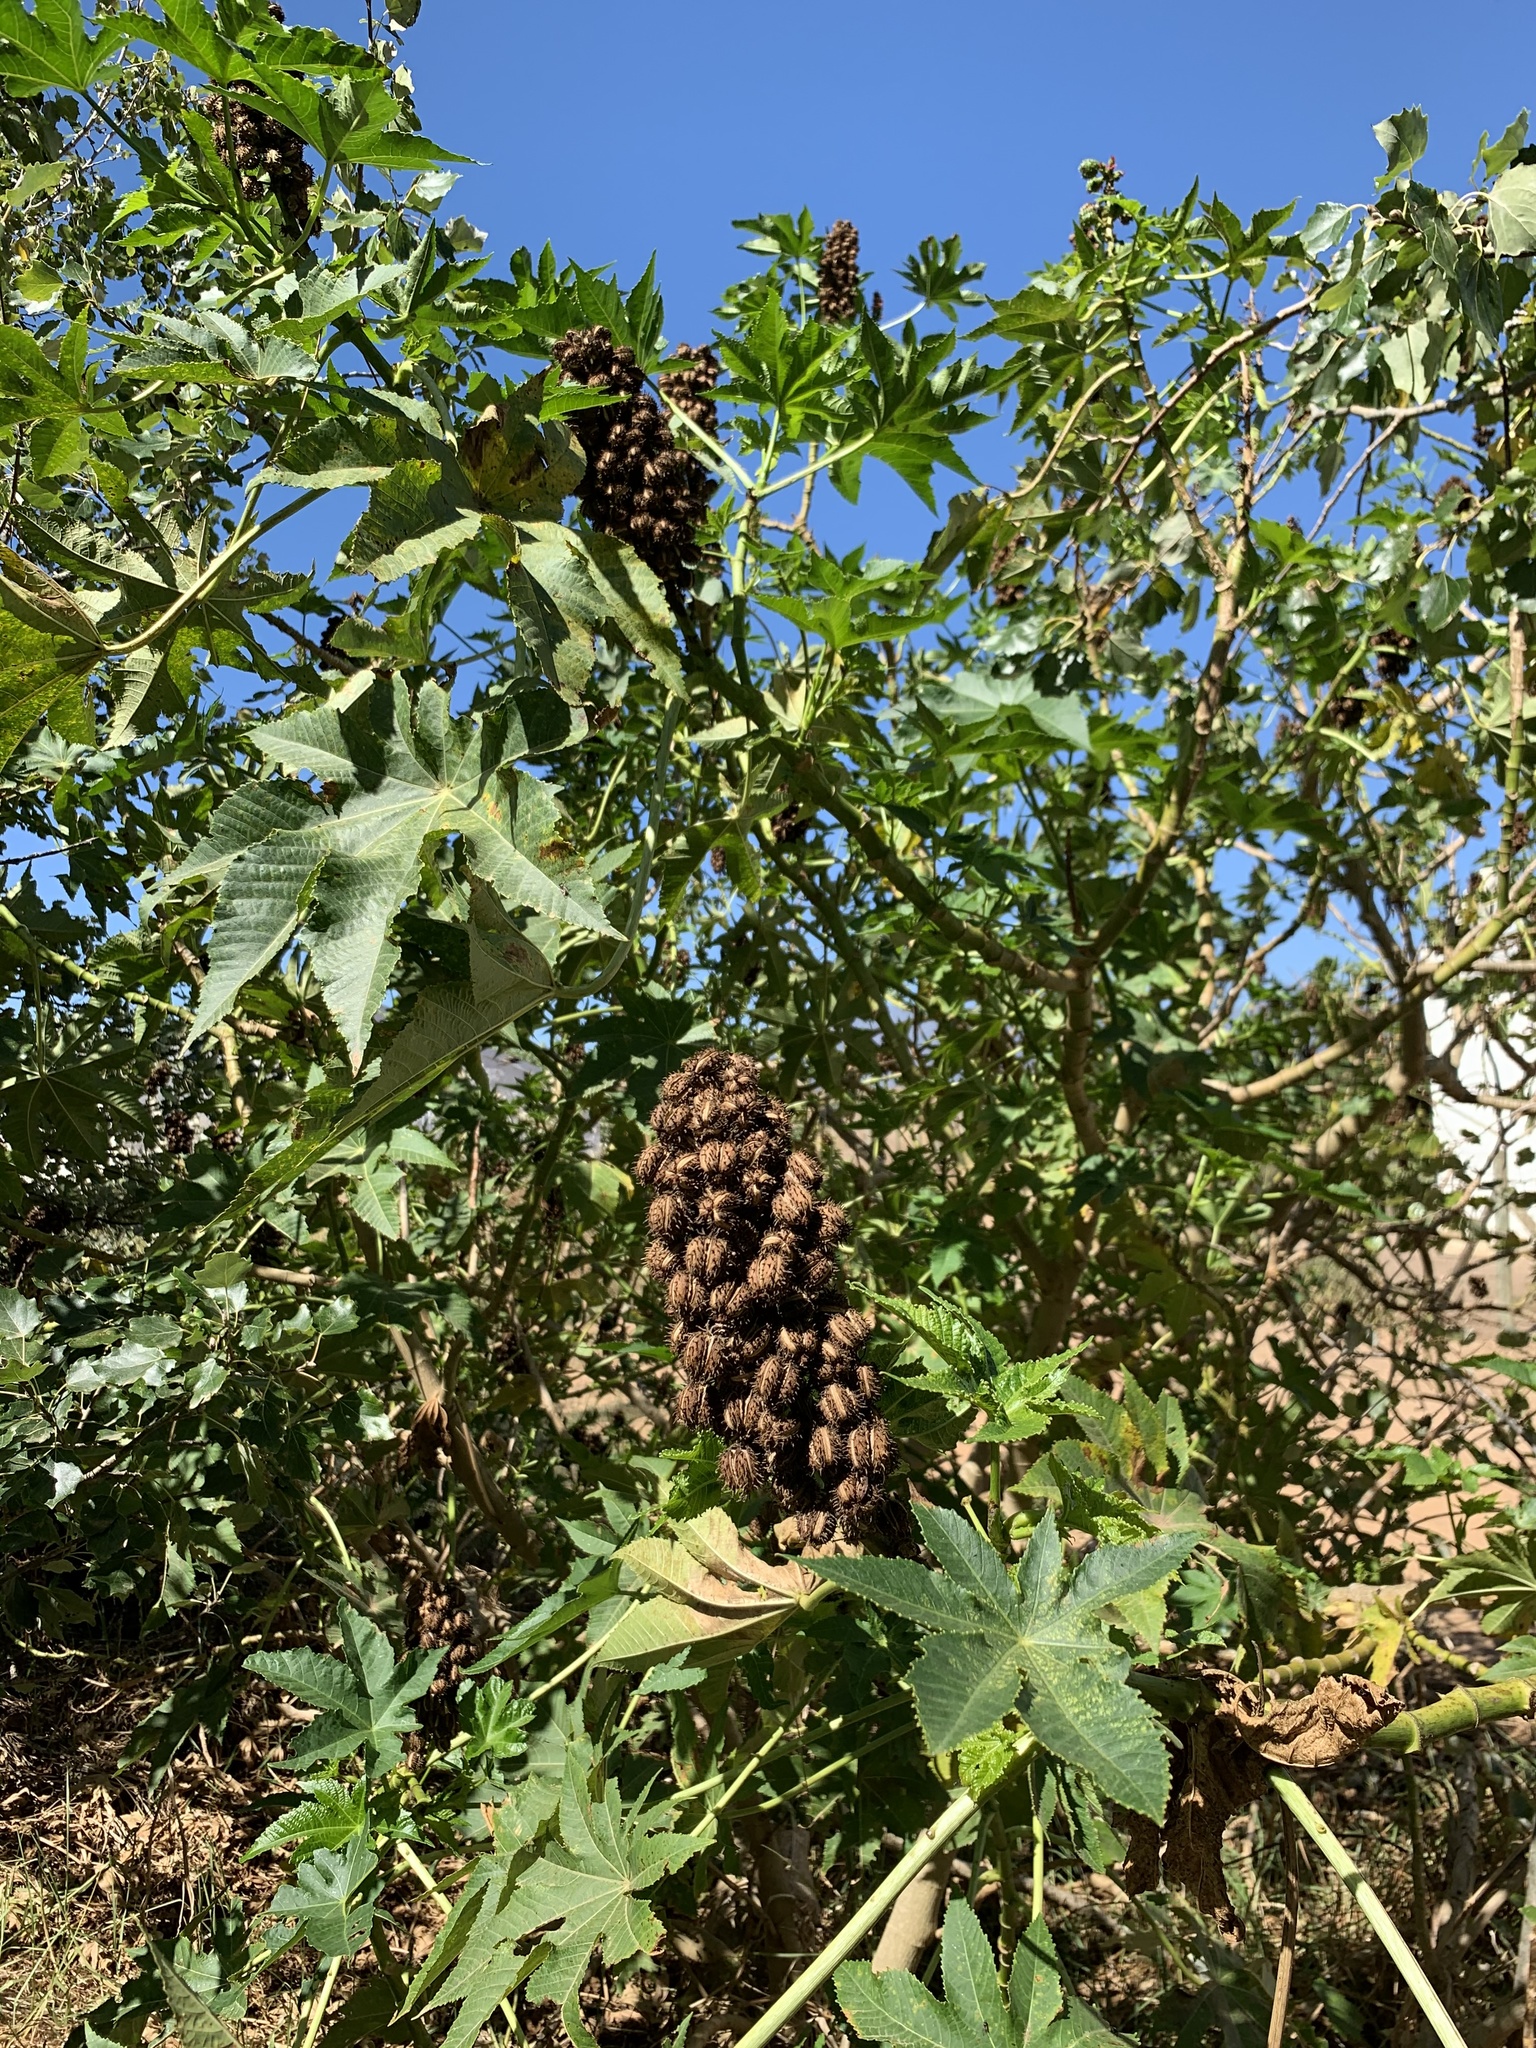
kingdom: Plantae
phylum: Tracheophyta
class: Magnoliopsida
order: Malpighiales
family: Euphorbiaceae
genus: Ricinus
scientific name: Ricinus communis
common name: Castor-oil-plant
